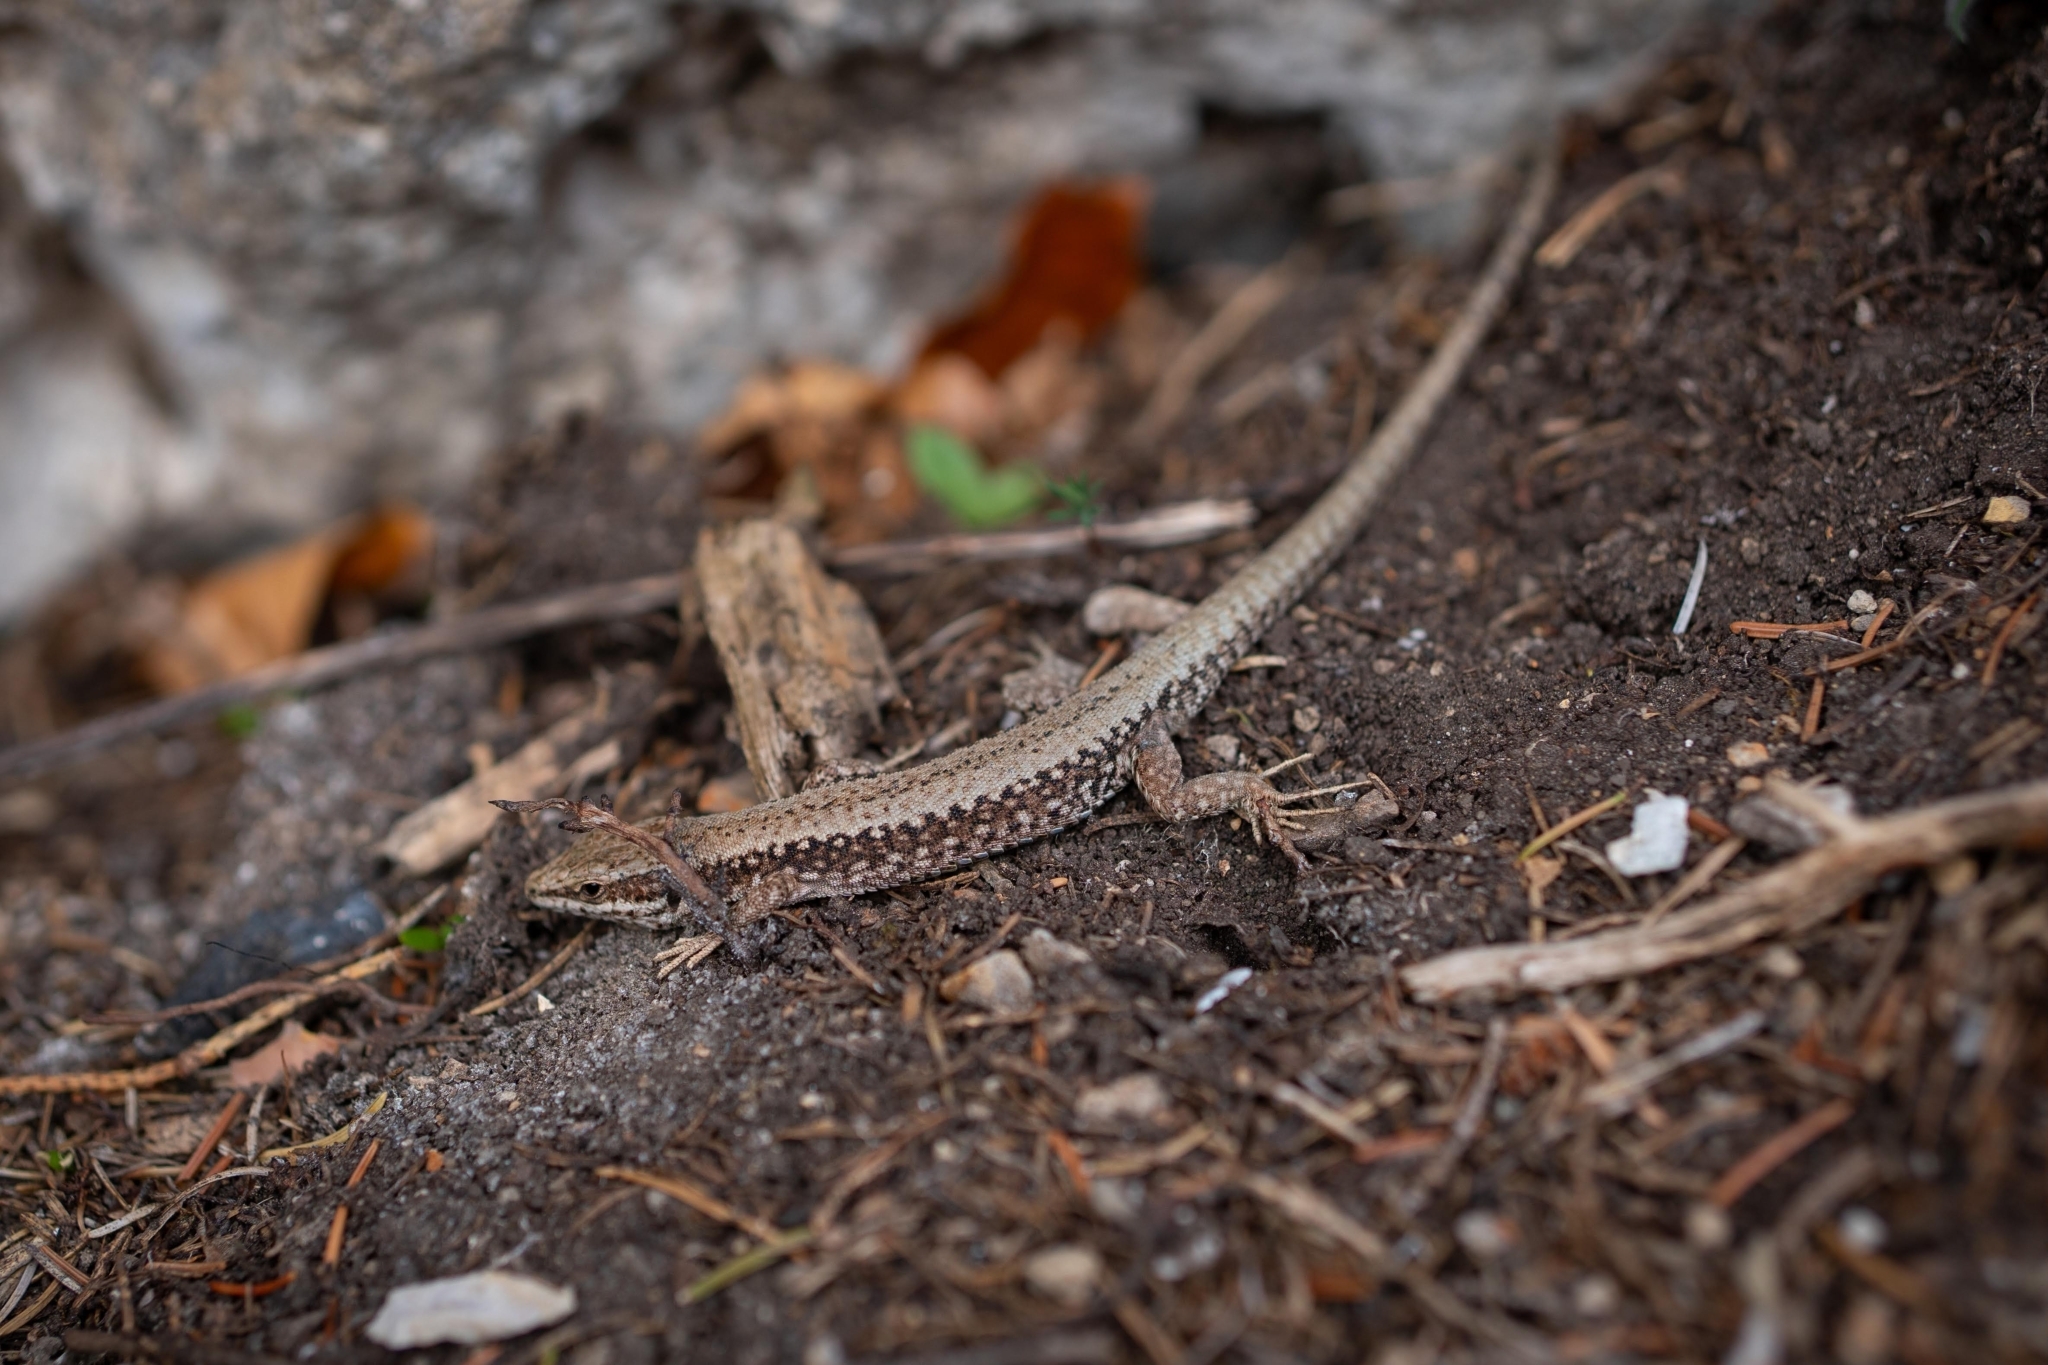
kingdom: Animalia
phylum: Chordata
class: Squamata
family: Lacertidae
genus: Podarcis
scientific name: Podarcis muralis
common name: Common wall lizard
